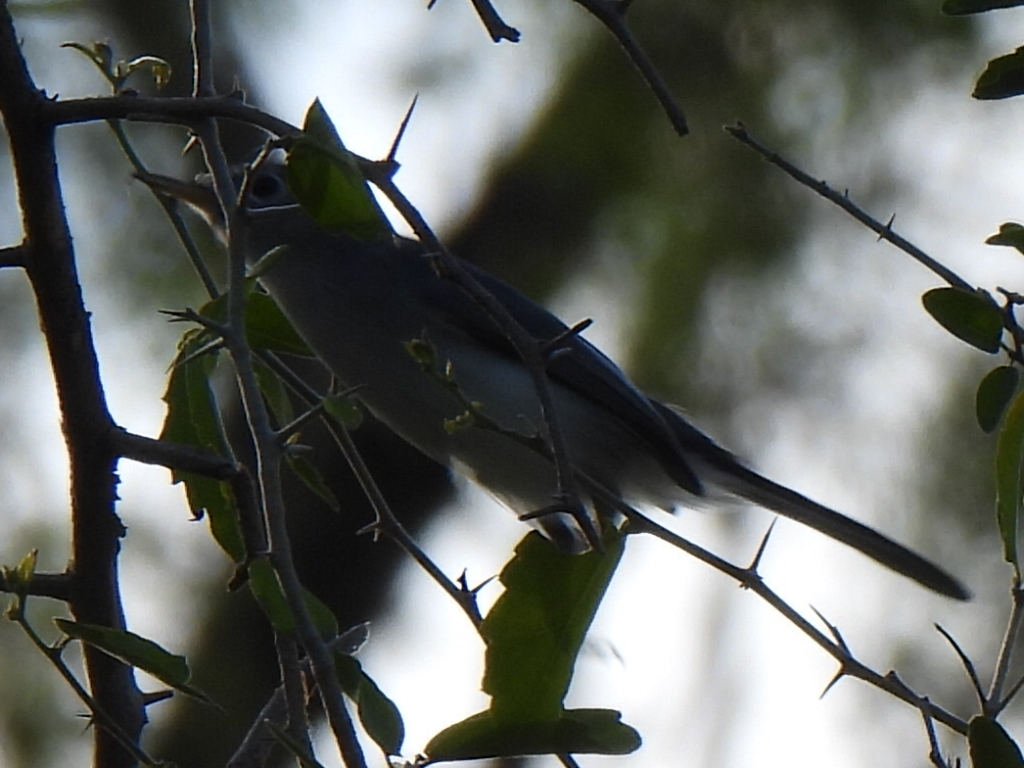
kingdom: Animalia
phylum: Chordata
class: Aves
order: Passeriformes
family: Polioptilidae
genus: Polioptila
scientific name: Polioptila caerulea
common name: Blue-gray gnatcatcher
